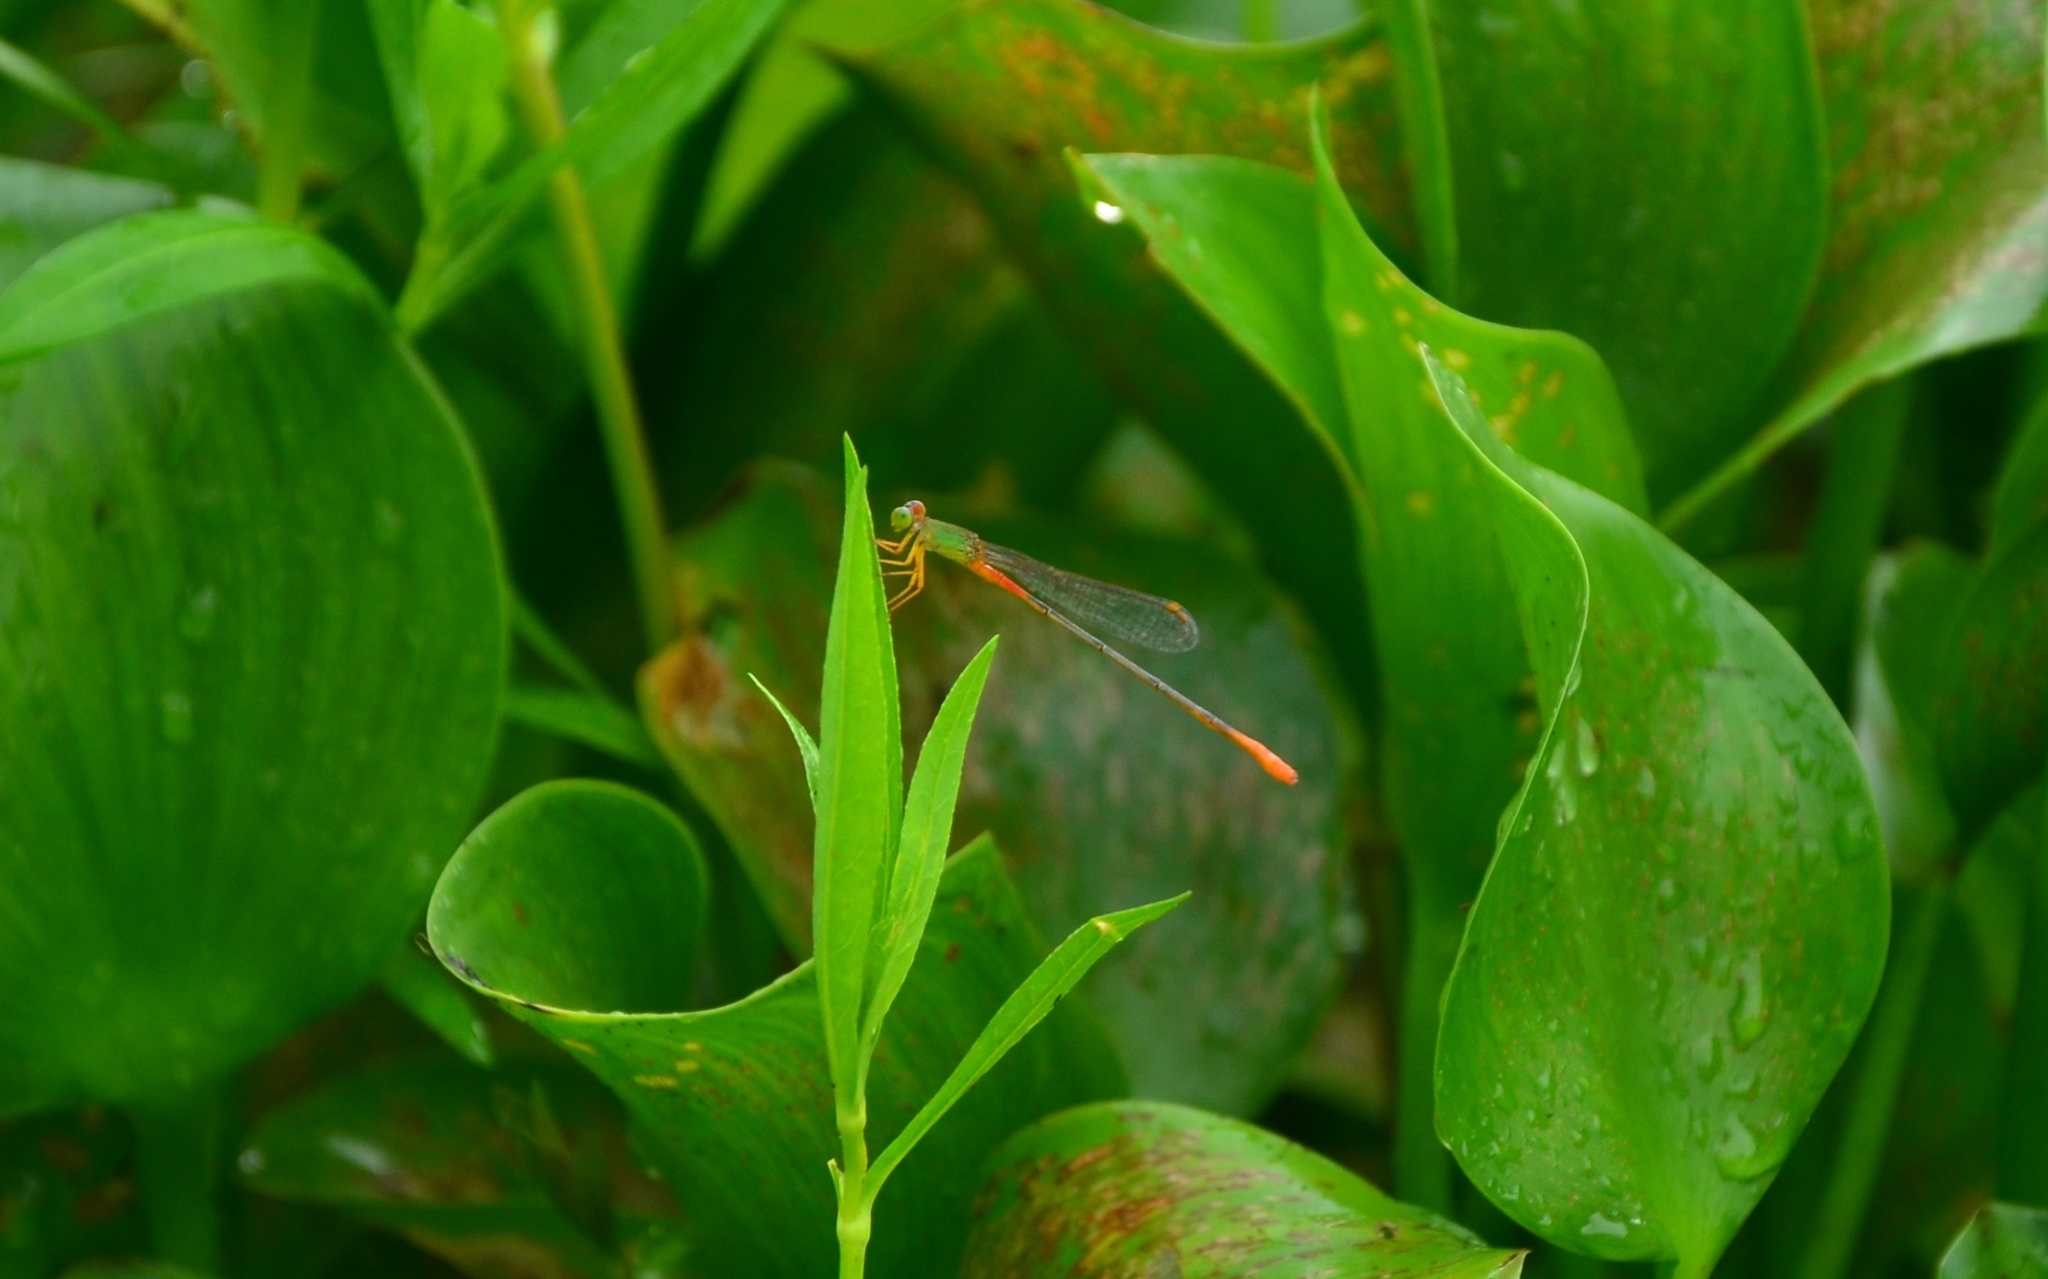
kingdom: Animalia
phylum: Arthropoda
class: Insecta
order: Odonata
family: Coenagrionidae
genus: Ceriagrion
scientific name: Ceriagrion cerinorubellum
